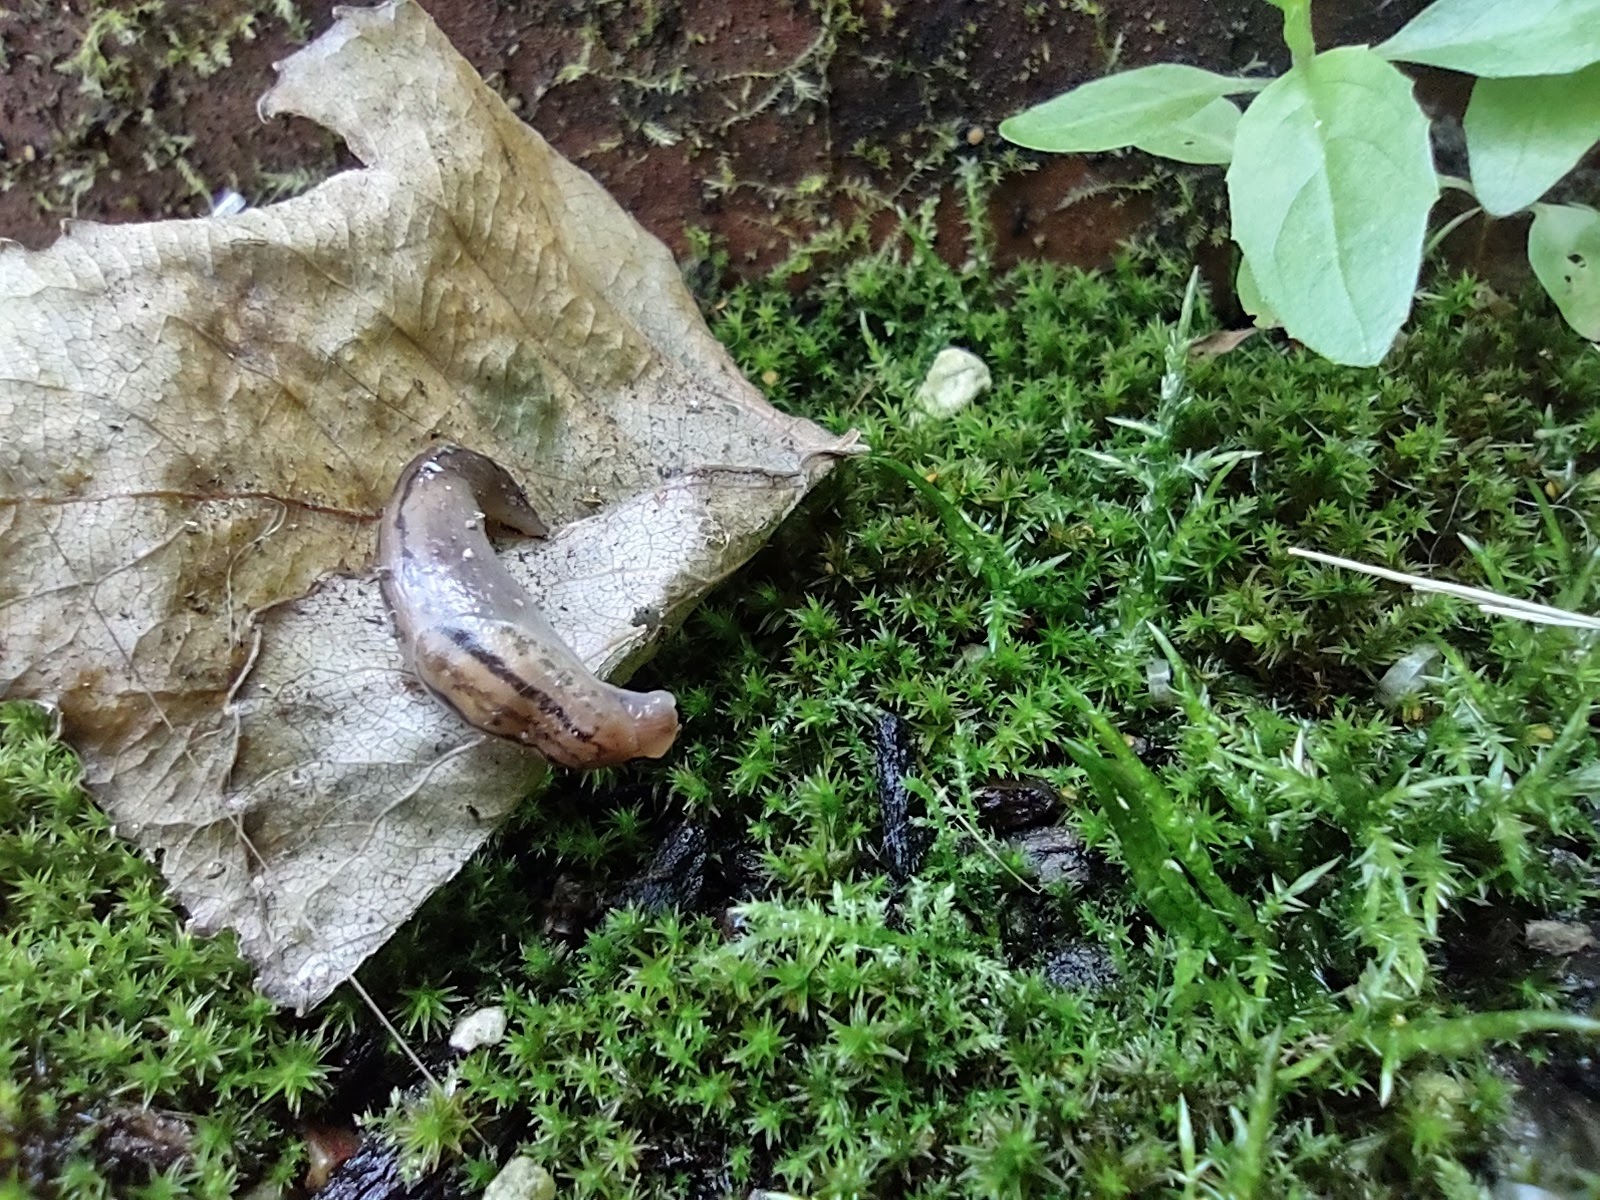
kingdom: Animalia
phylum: Mollusca
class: Gastropoda
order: Stylommatophora
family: Limacidae
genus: Ambigolimax
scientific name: Ambigolimax
